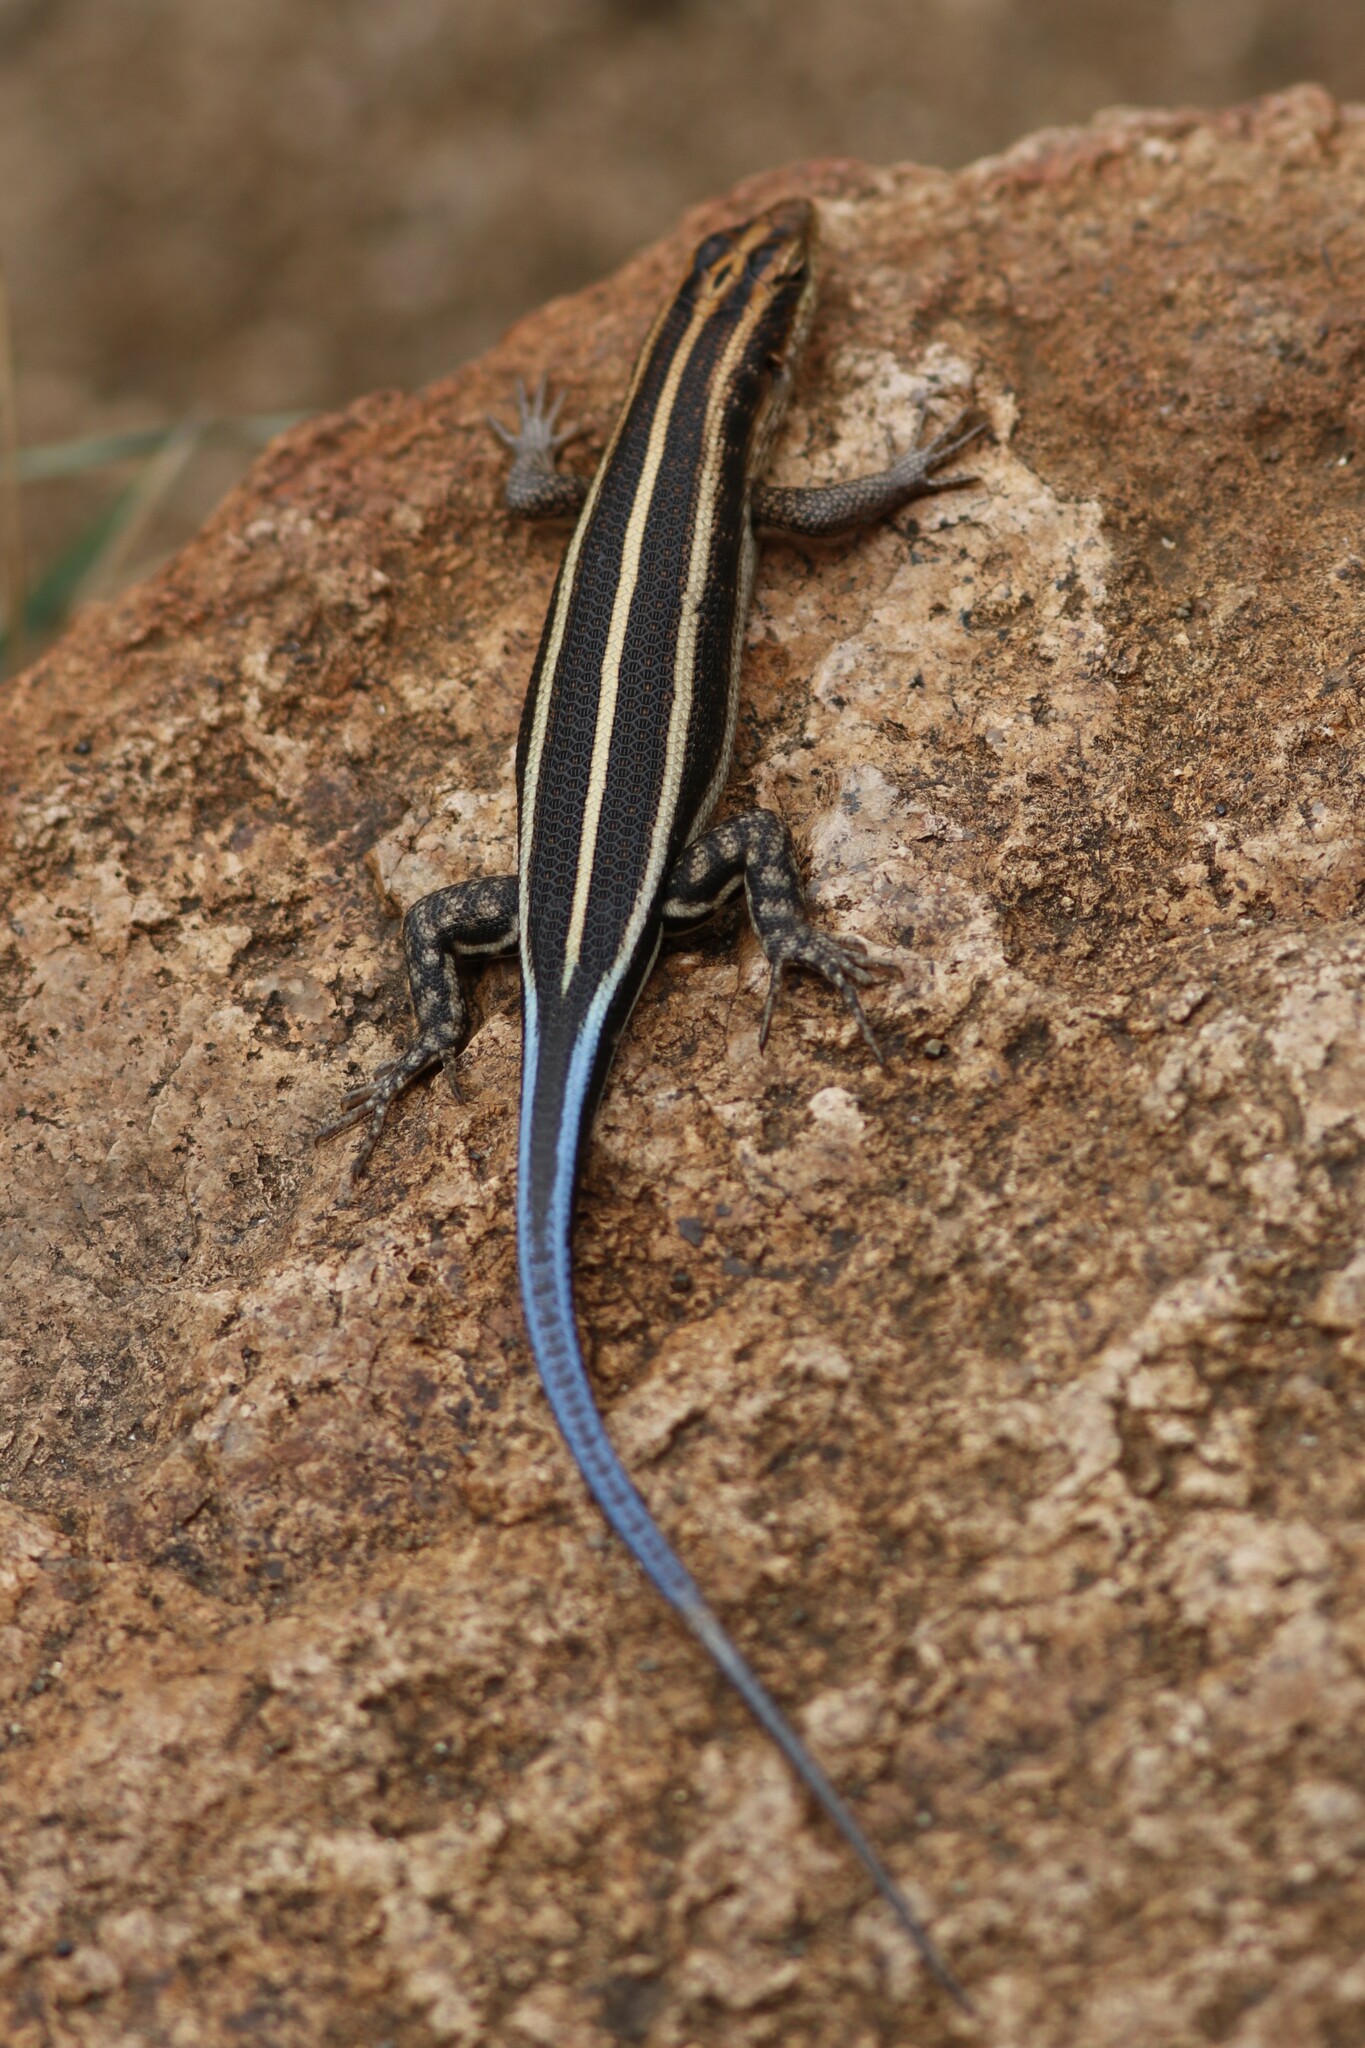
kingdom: Animalia
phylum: Chordata
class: Squamata
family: Scincidae
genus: Trachylepis
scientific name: Trachylepis margaritifera
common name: Rainbow skink
